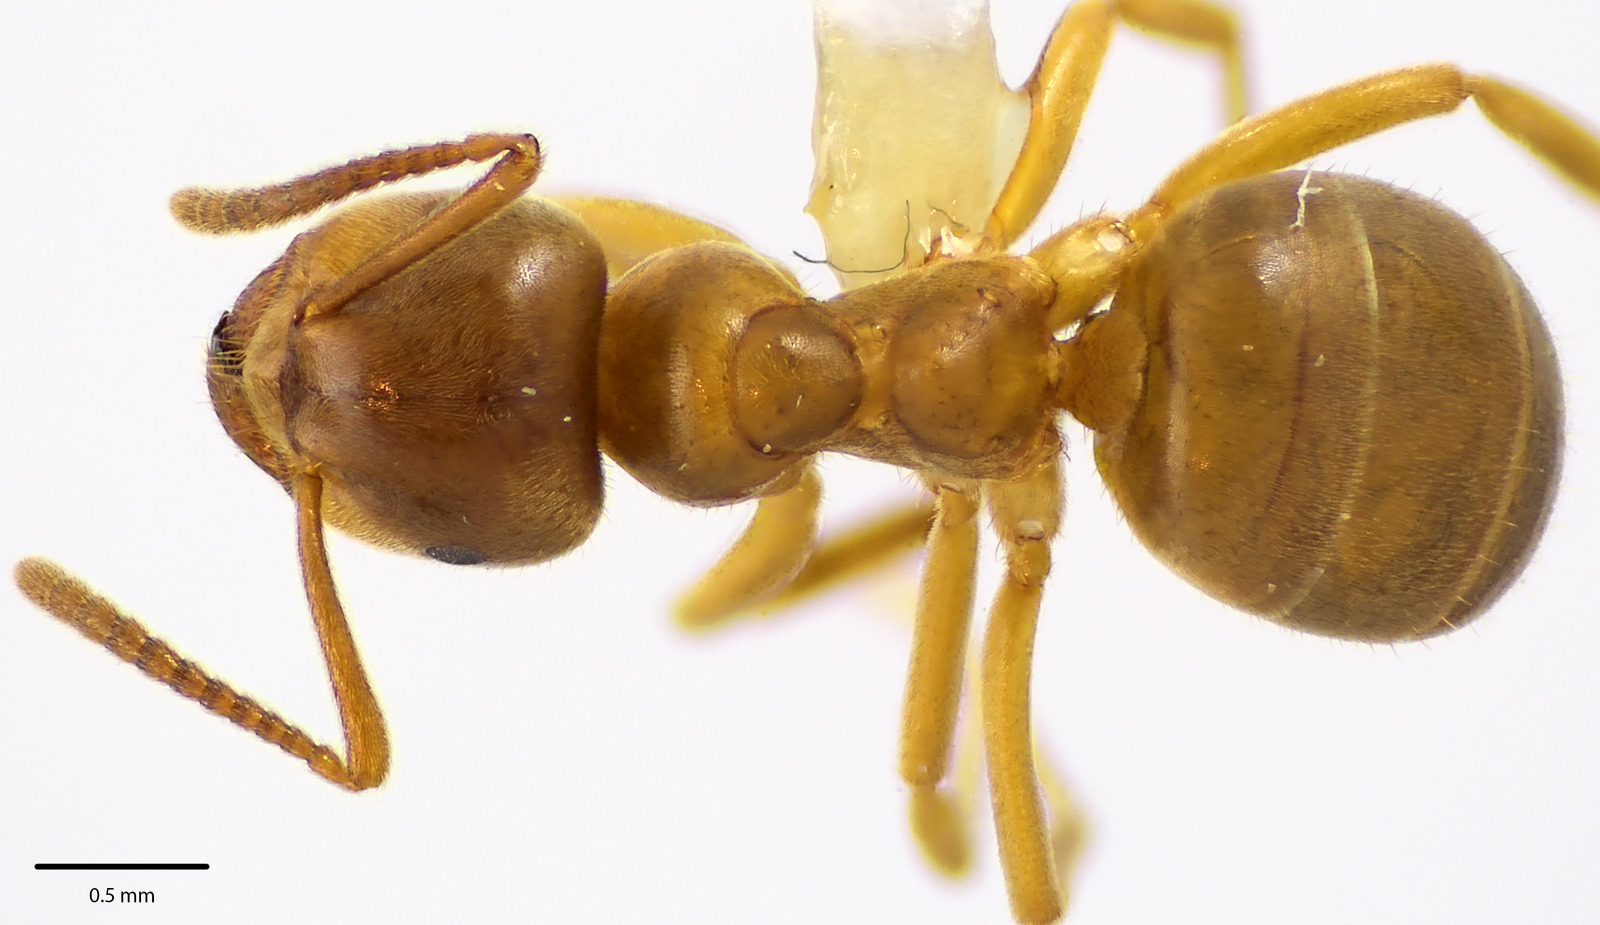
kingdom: Animalia
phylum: Arthropoda
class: Insecta
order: Hymenoptera
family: Formicidae
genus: Lasius
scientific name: Lasius aphidicola
